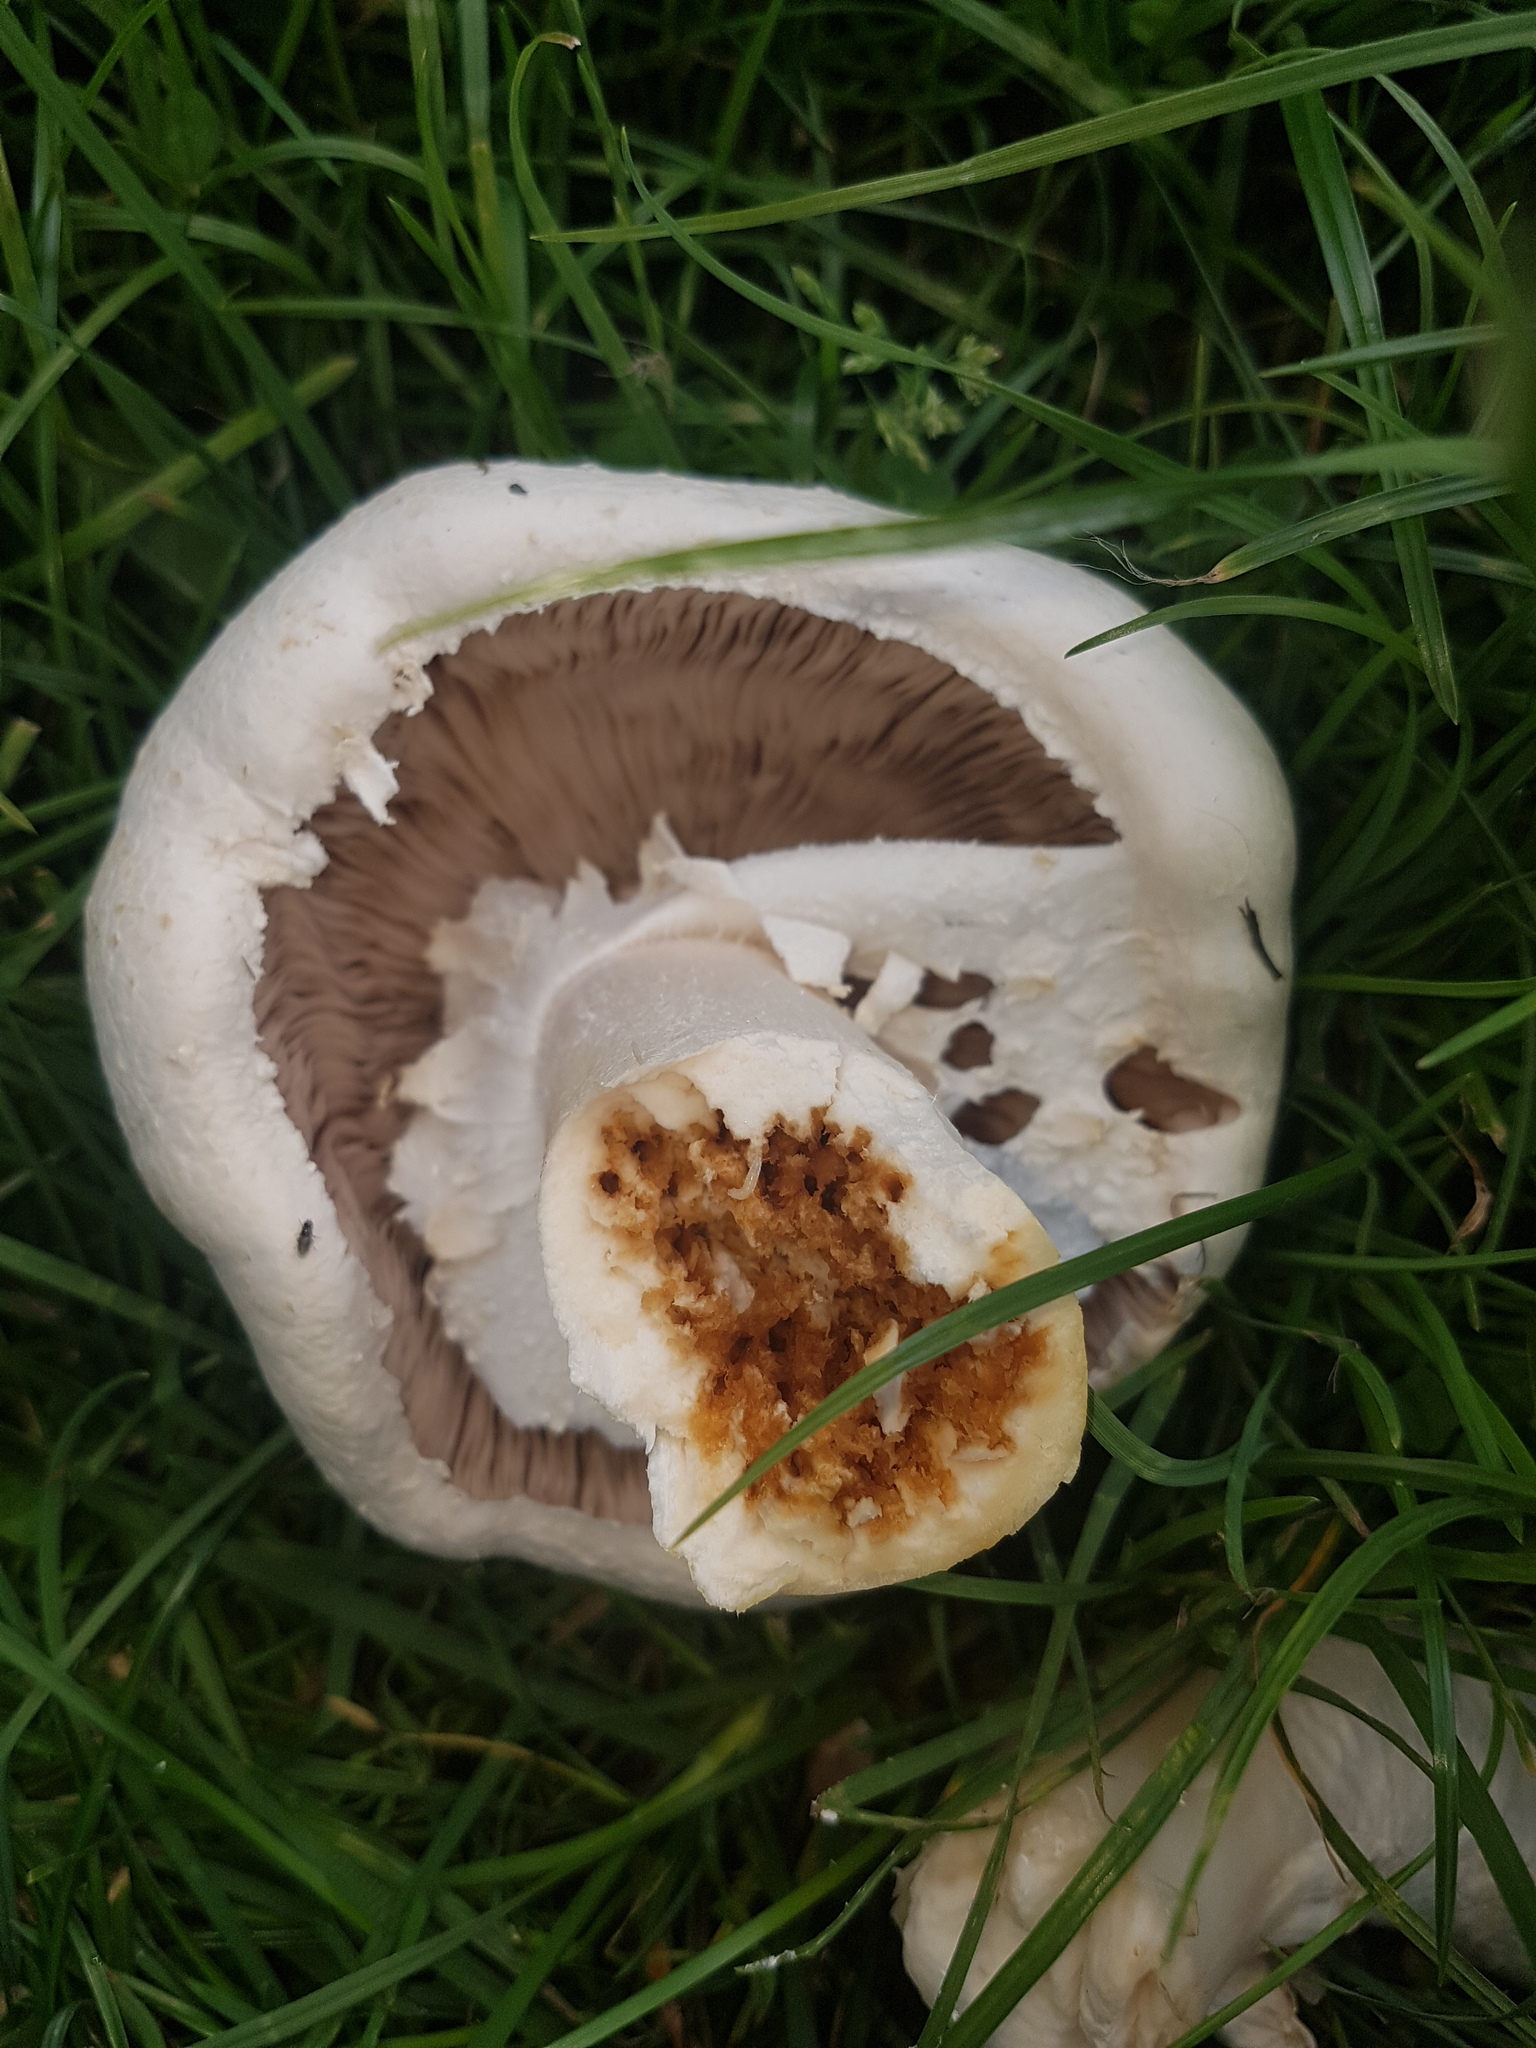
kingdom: Fungi
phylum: Basidiomycota
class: Agaricomycetes
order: Agaricales
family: Agaricaceae
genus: Agaricus
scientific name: Agaricus arvensis
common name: Horse mushroom
